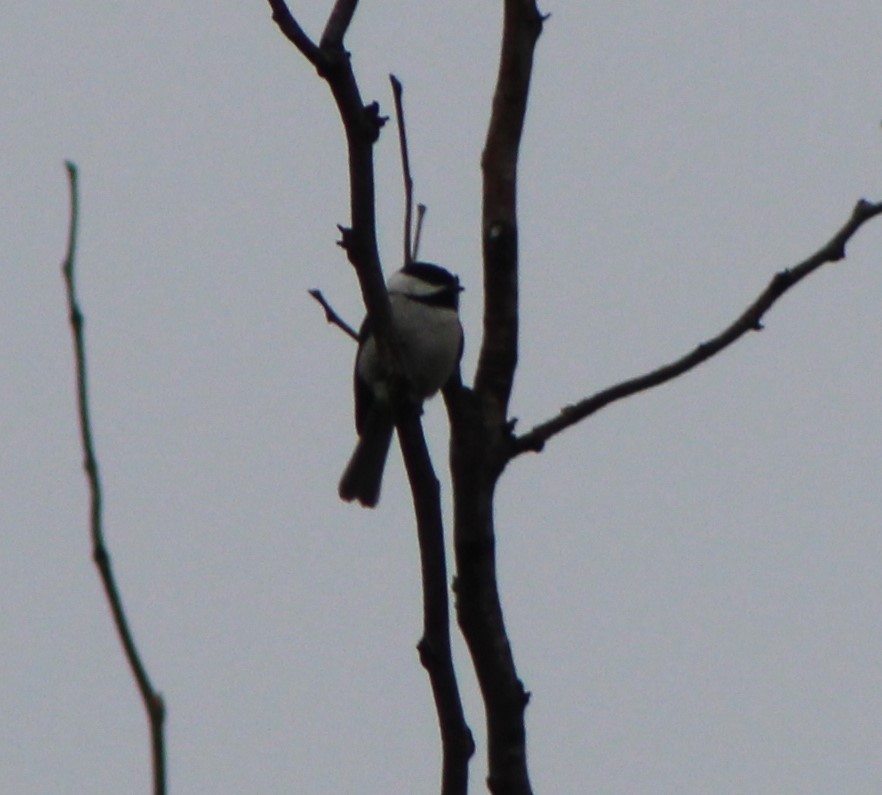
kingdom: Animalia
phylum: Chordata
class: Aves
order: Passeriformes
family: Paridae
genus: Poecile
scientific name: Poecile carolinensis
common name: Carolina chickadee
